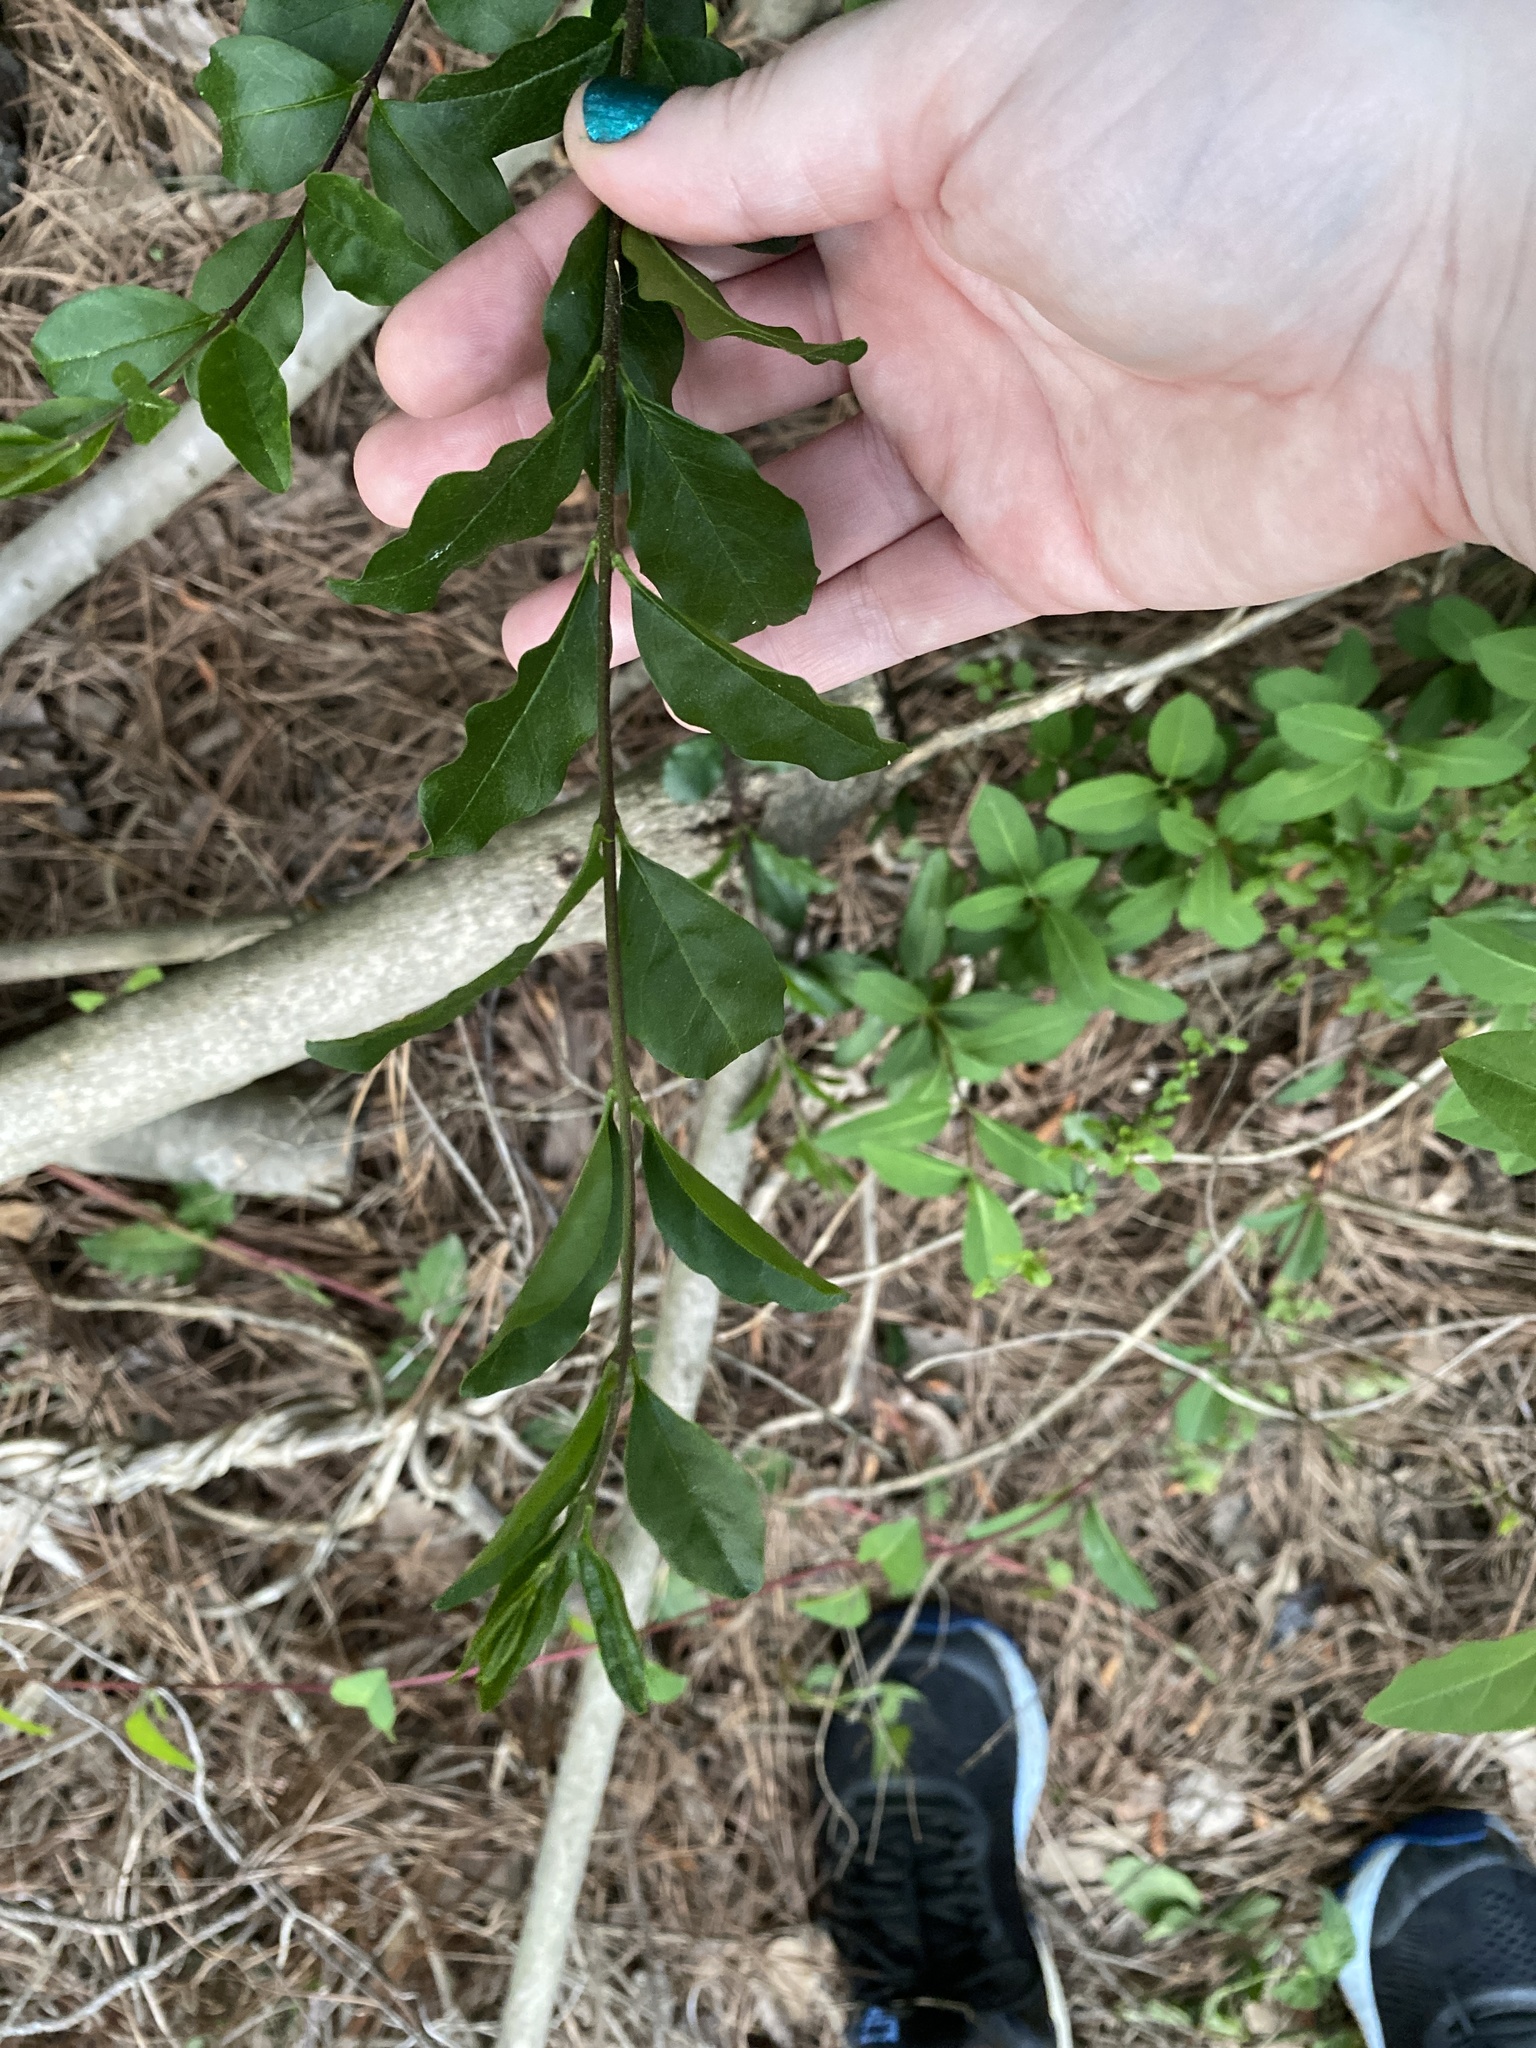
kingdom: Plantae
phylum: Tracheophyta
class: Magnoliopsida
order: Lamiales
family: Oleaceae
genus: Ligustrum
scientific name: Ligustrum sinense
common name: Chinese privet
